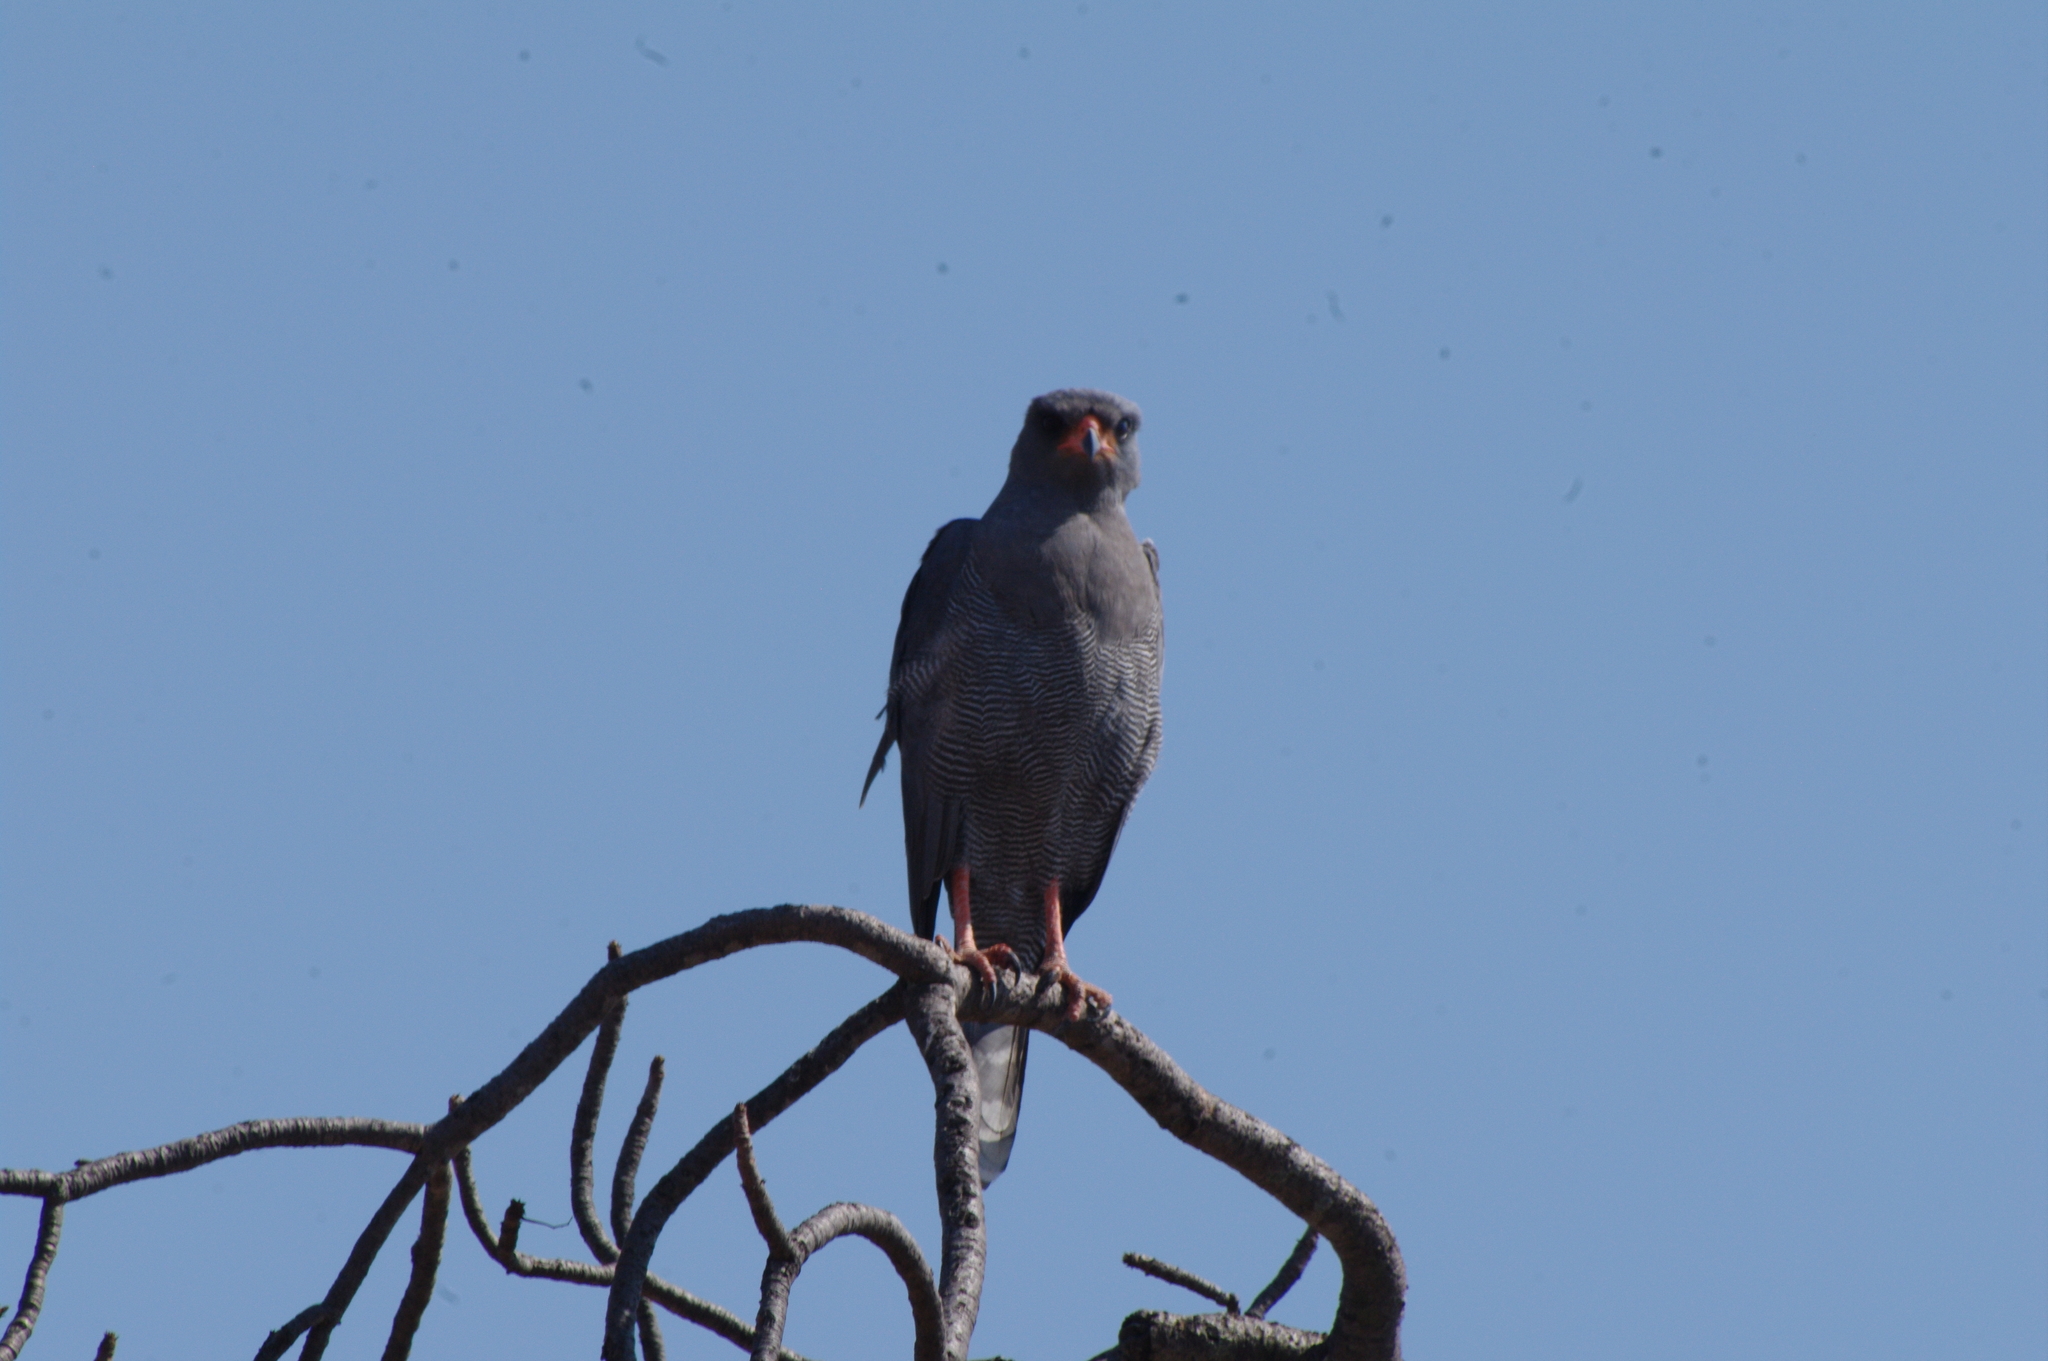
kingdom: Animalia
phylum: Chordata
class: Aves
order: Accipitriformes
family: Accipitridae
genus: Melierax
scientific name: Melierax metabates
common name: Dark chanting-goshawk
